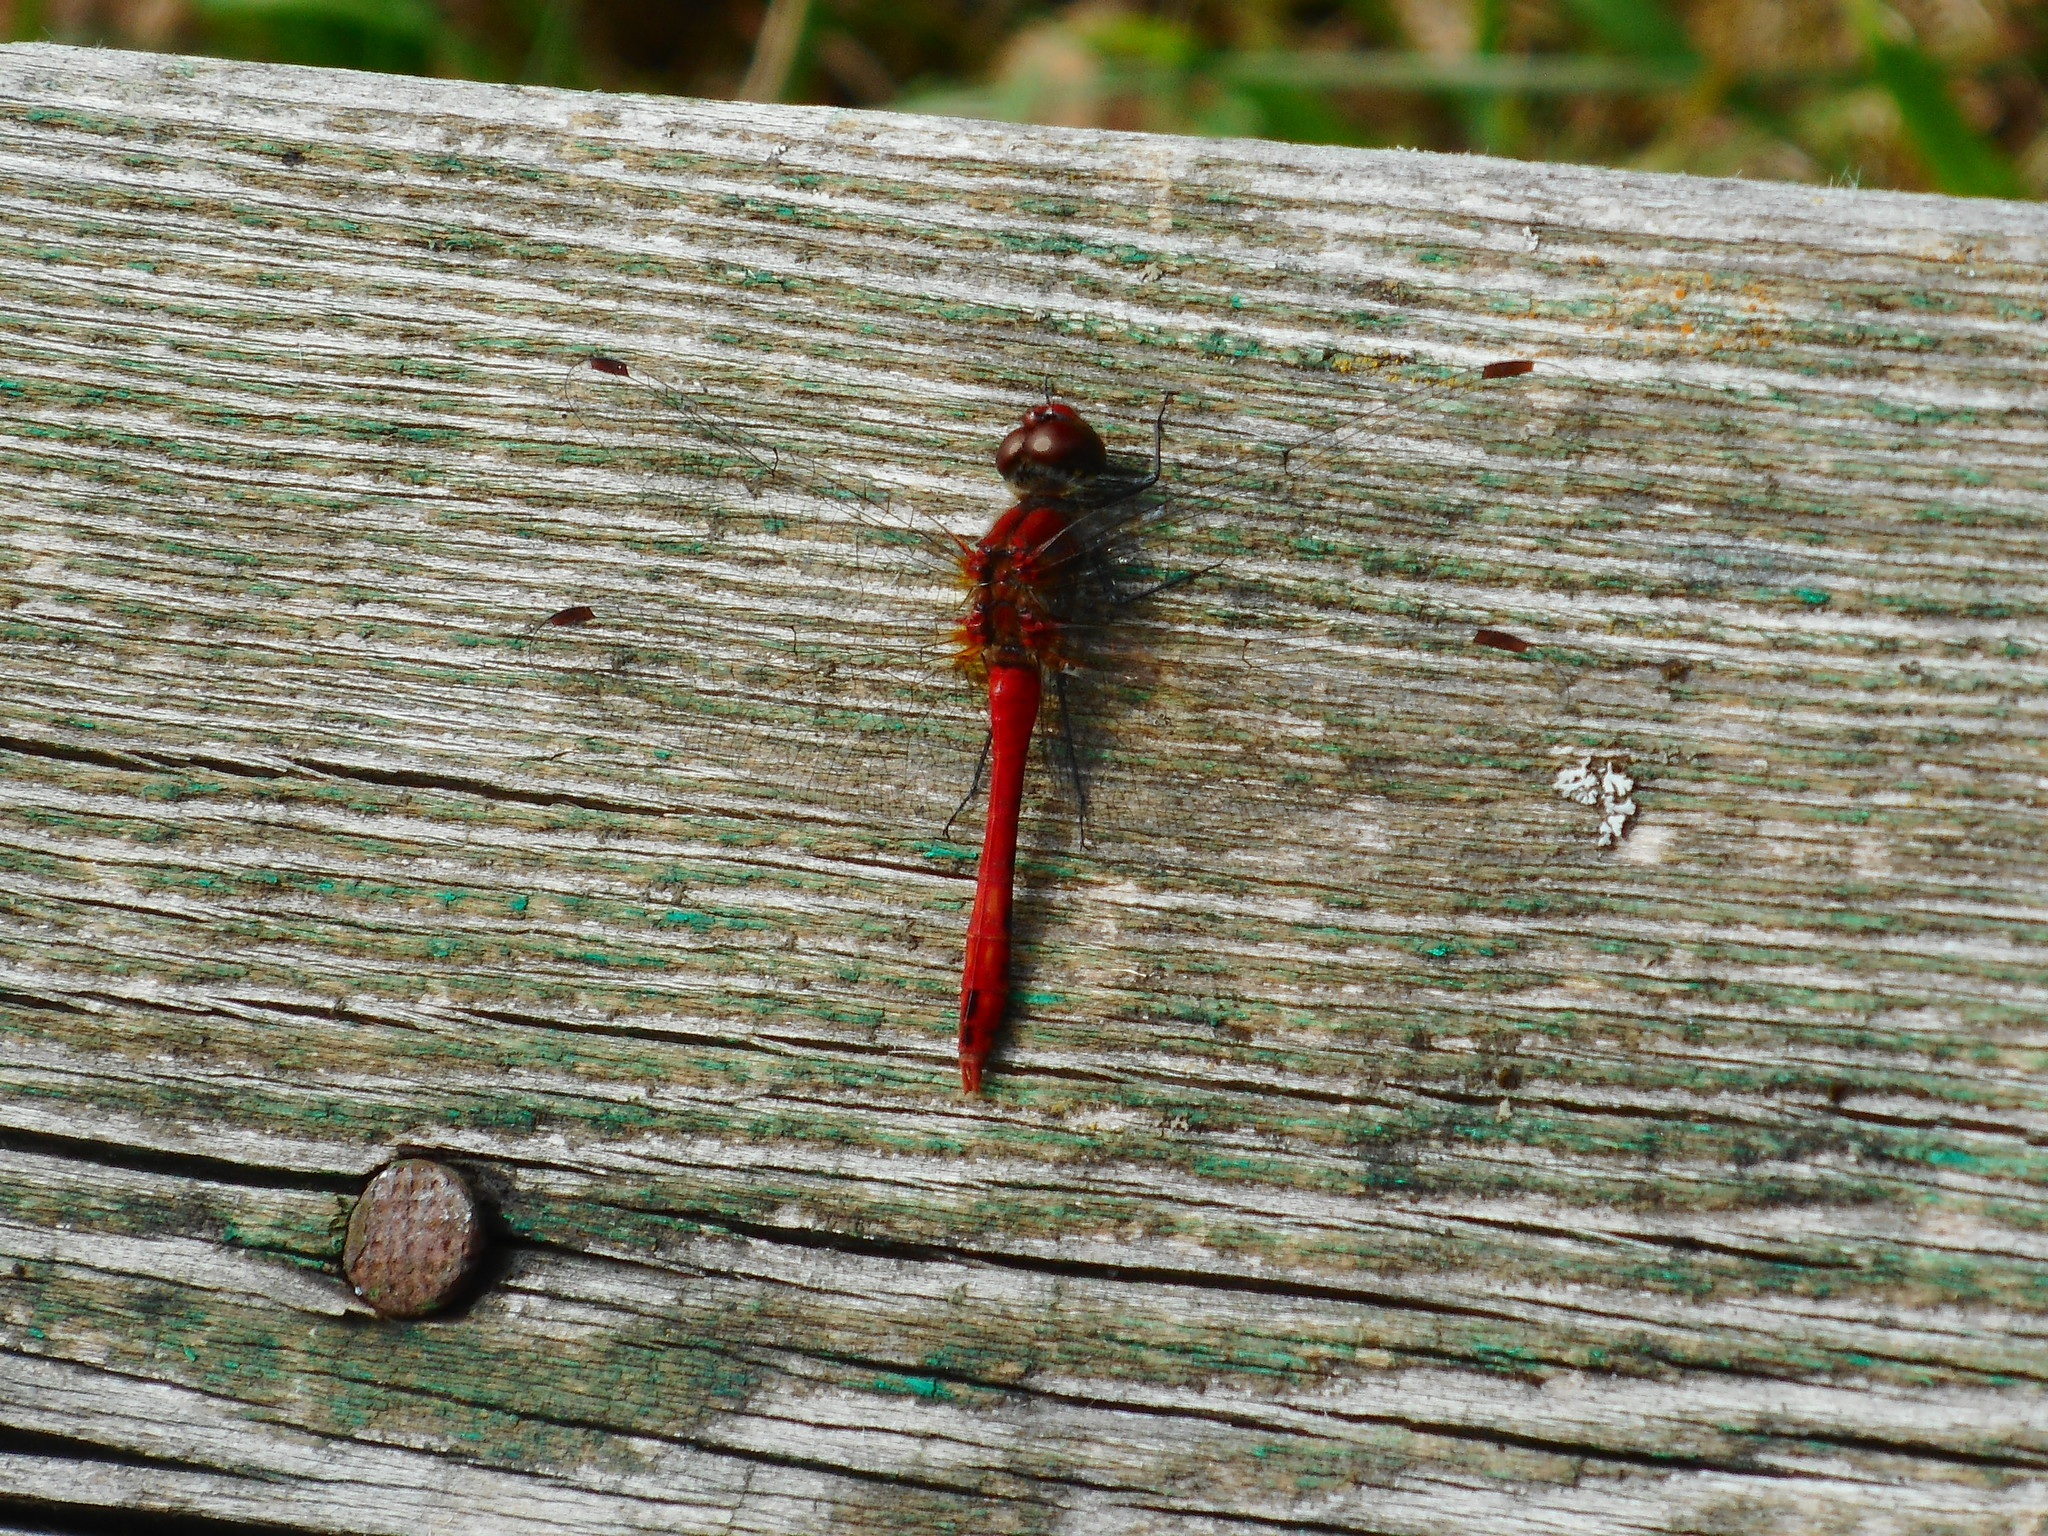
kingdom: Animalia
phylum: Arthropoda
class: Insecta
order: Odonata
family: Libellulidae
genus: Sympetrum
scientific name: Sympetrum sanguineum
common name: Ruddy darter
